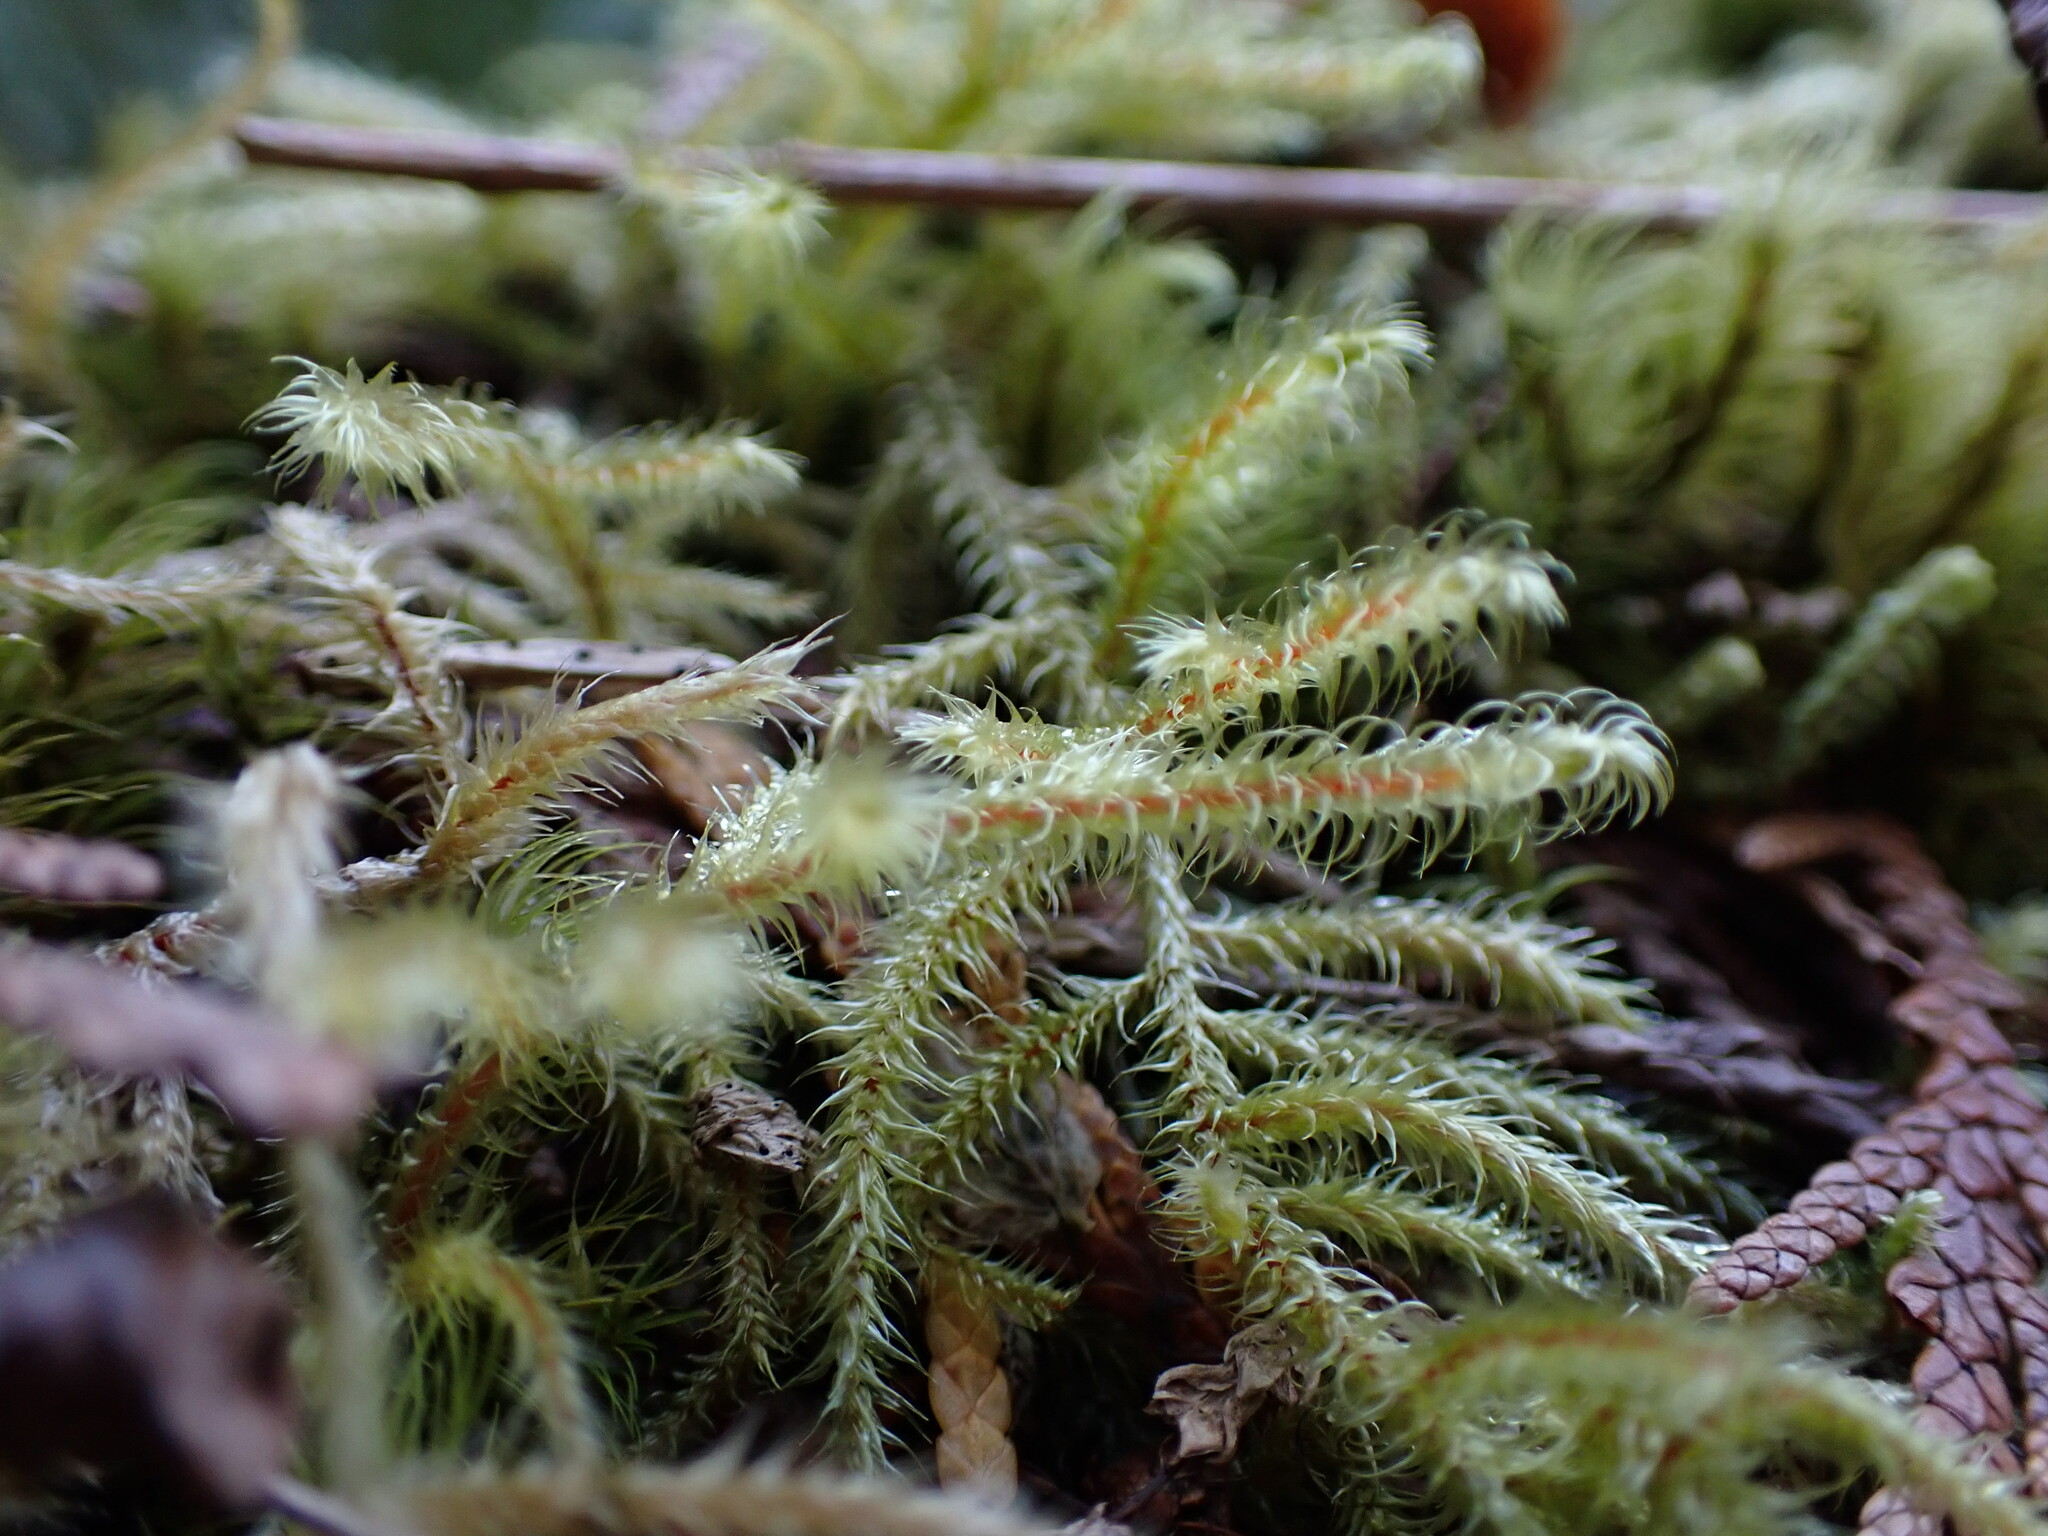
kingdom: Plantae
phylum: Bryophyta
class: Bryopsida
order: Hypnales
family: Hylocomiaceae
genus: Rhytidiadelphus
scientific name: Rhytidiadelphus loreus
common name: Lanky moss
